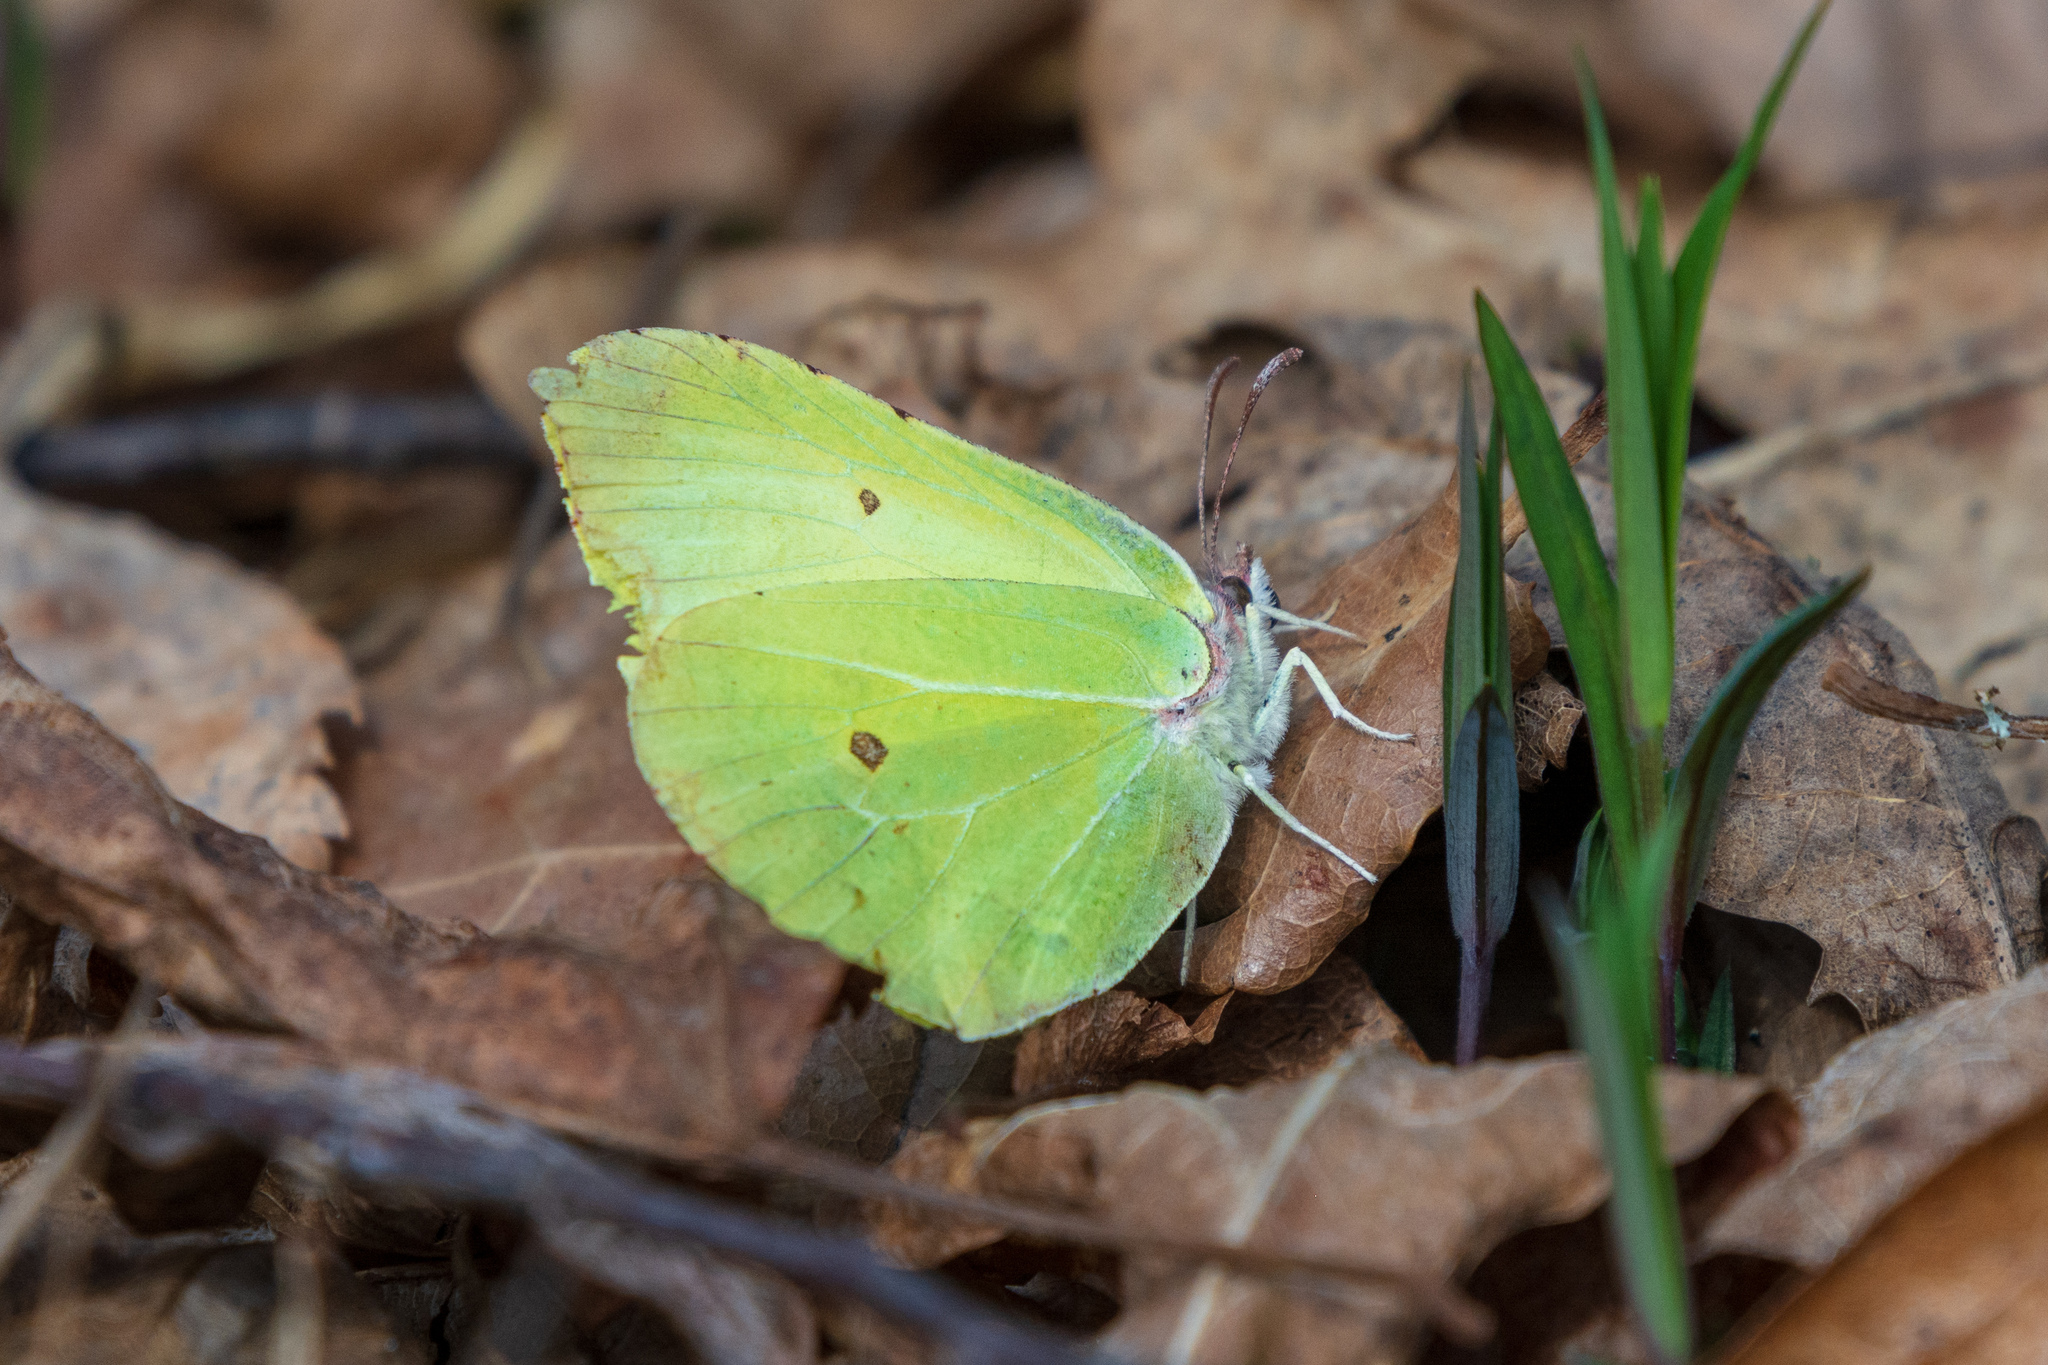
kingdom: Animalia
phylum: Arthropoda
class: Insecta
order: Lepidoptera
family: Pieridae
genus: Gonepteryx
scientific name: Gonepteryx rhamni
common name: Brimstone
